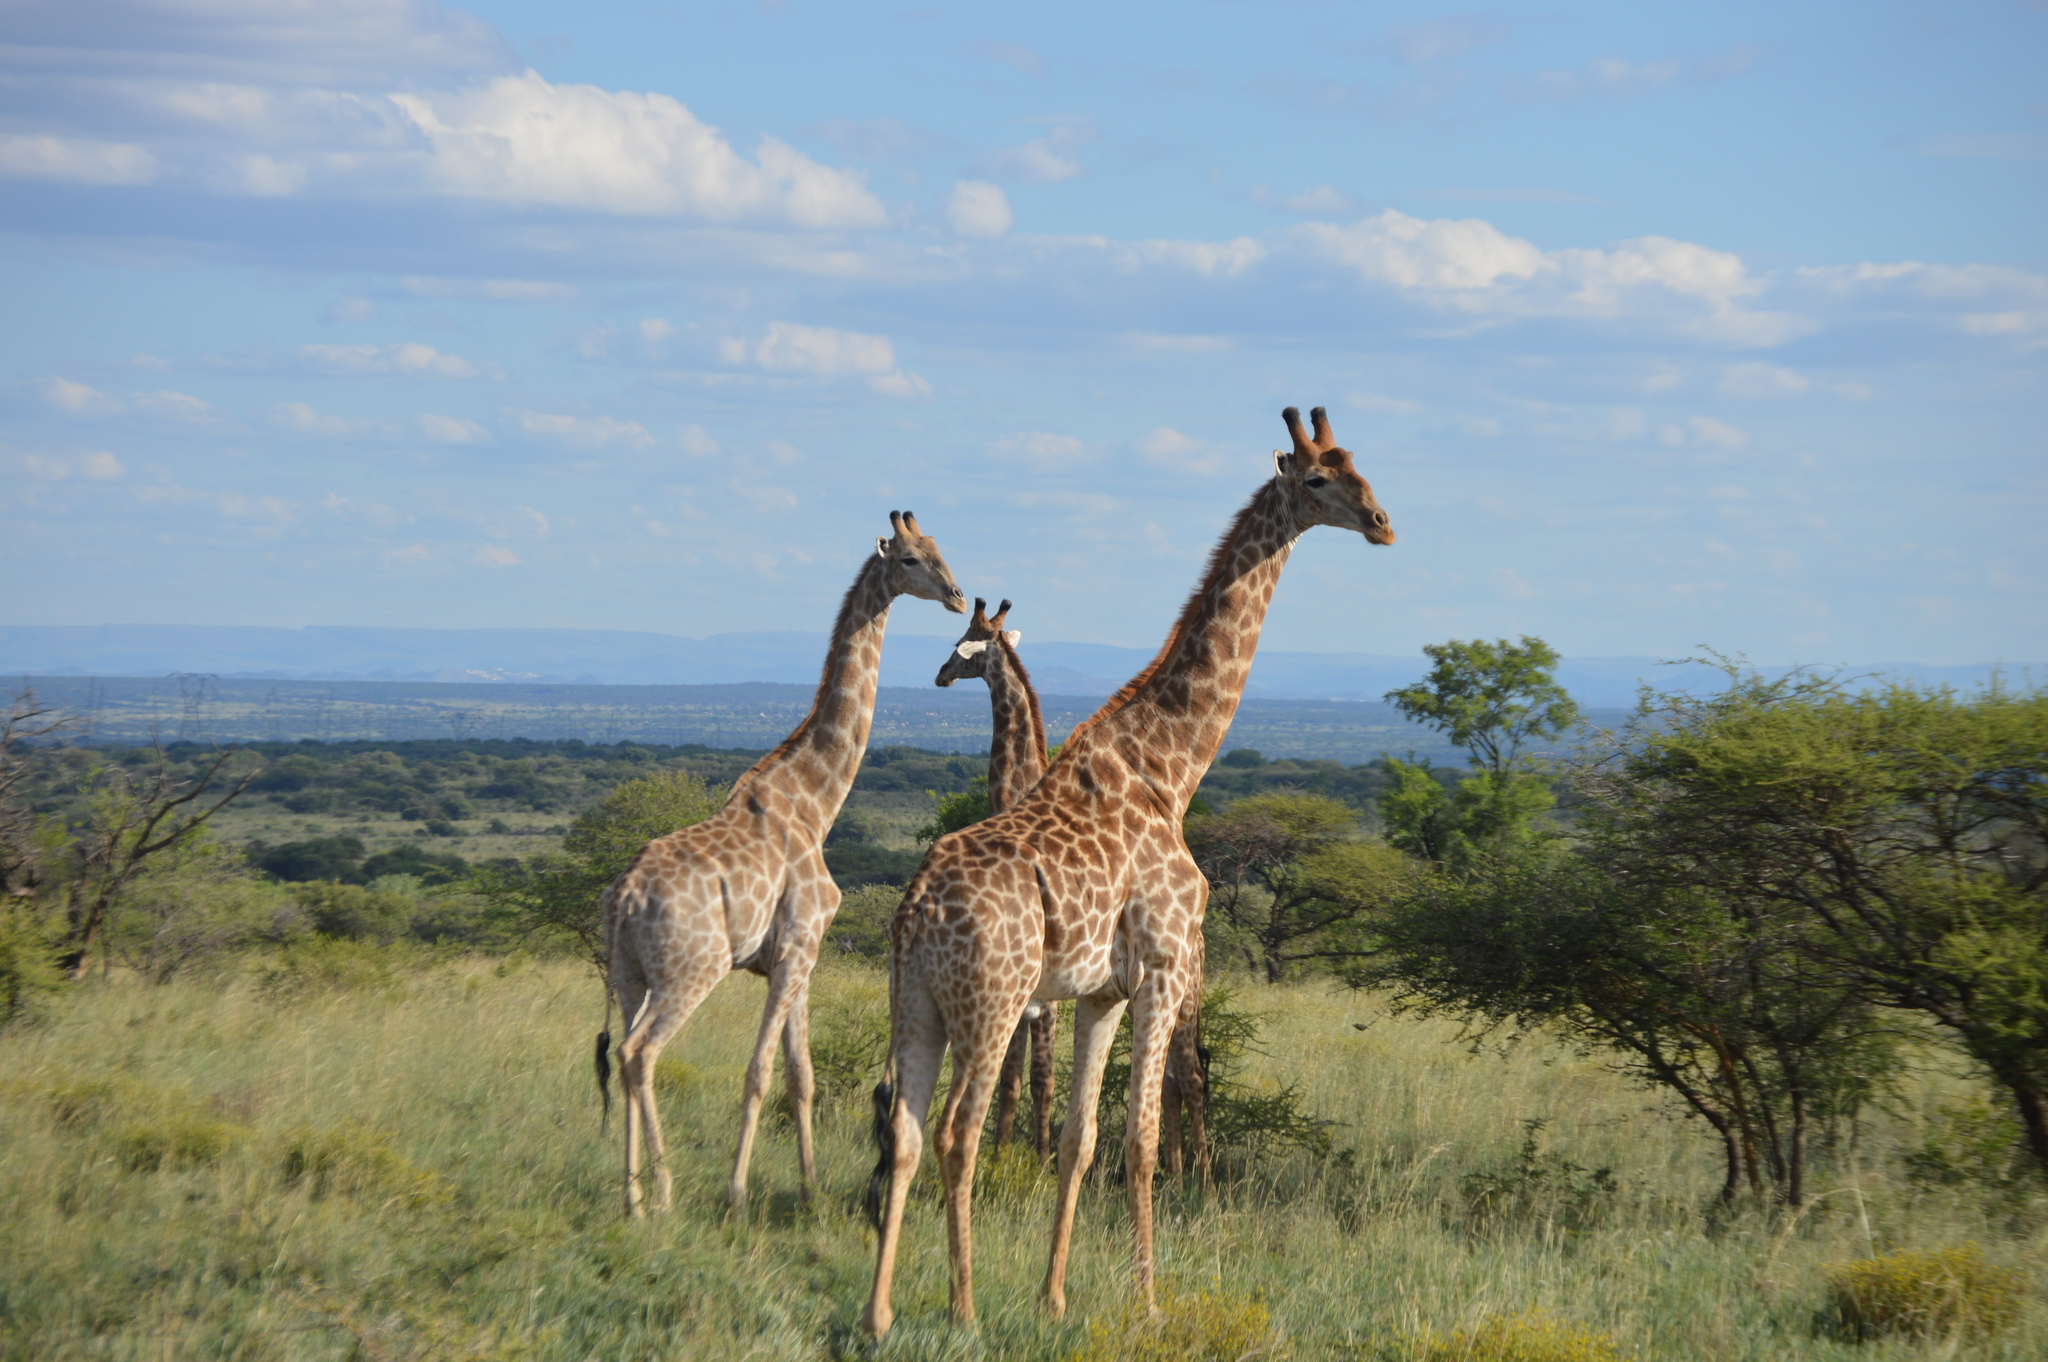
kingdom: Animalia
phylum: Chordata
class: Mammalia
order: Artiodactyla
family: Giraffidae
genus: Giraffa
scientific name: Giraffa giraffa
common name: Southern giraffe
